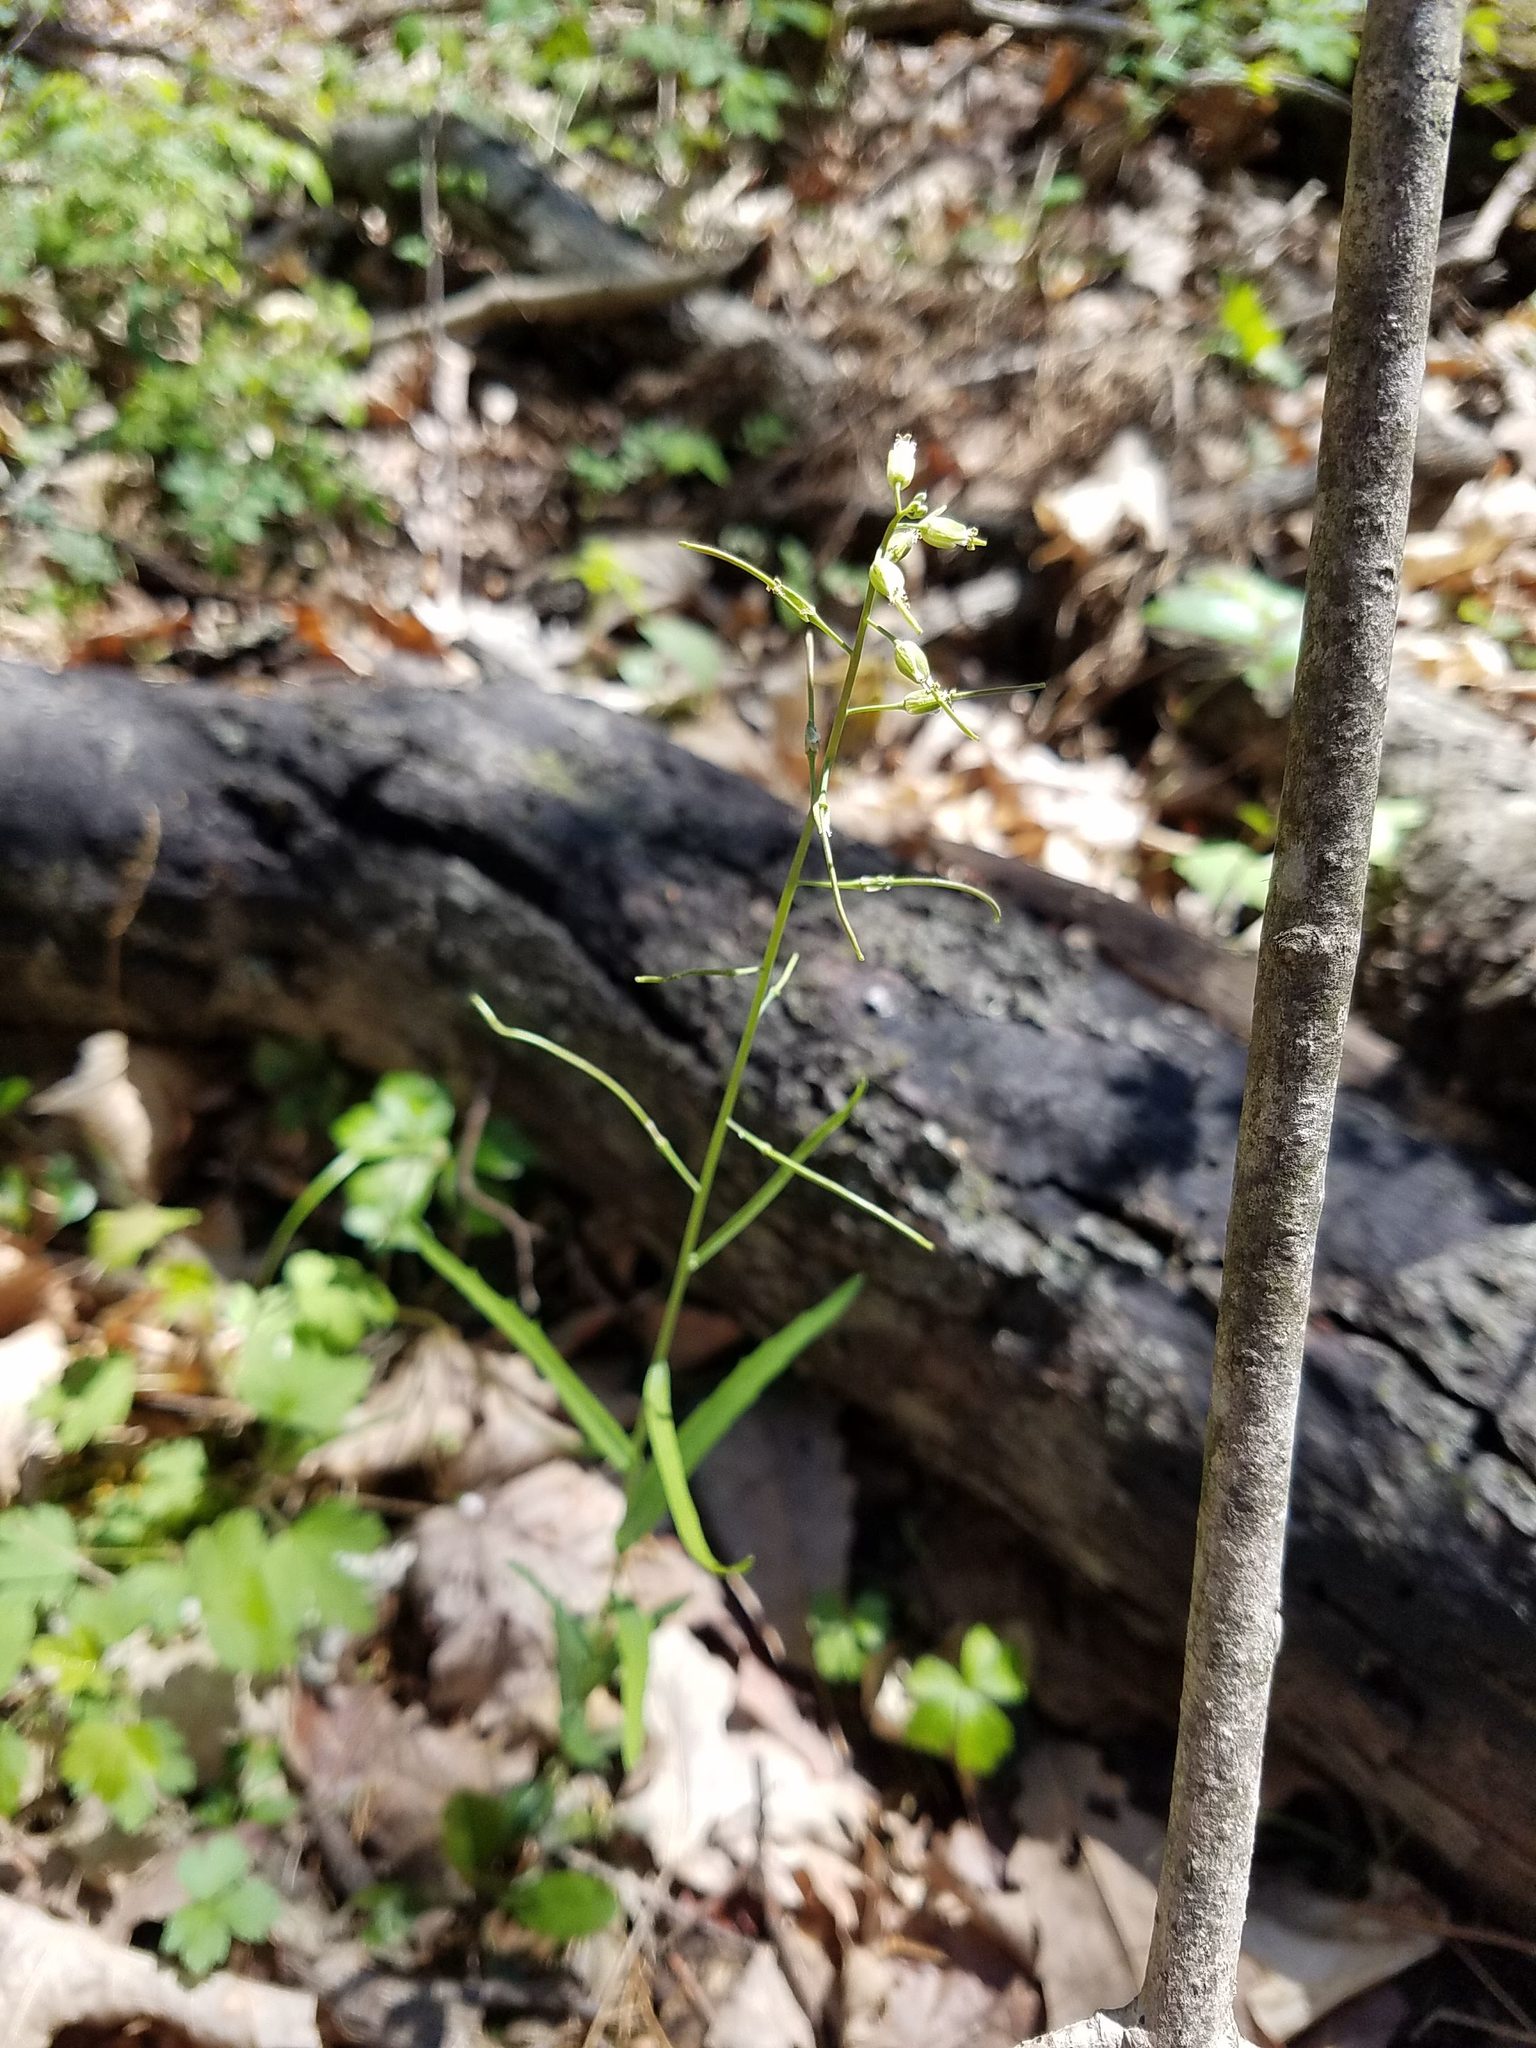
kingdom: Plantae
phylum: Tracheophyta
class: Magnoliopsida
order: Brassicales
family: Brassicaceae
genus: Borodinia
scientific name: Borodinia laevigata
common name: Smooth rockcress
